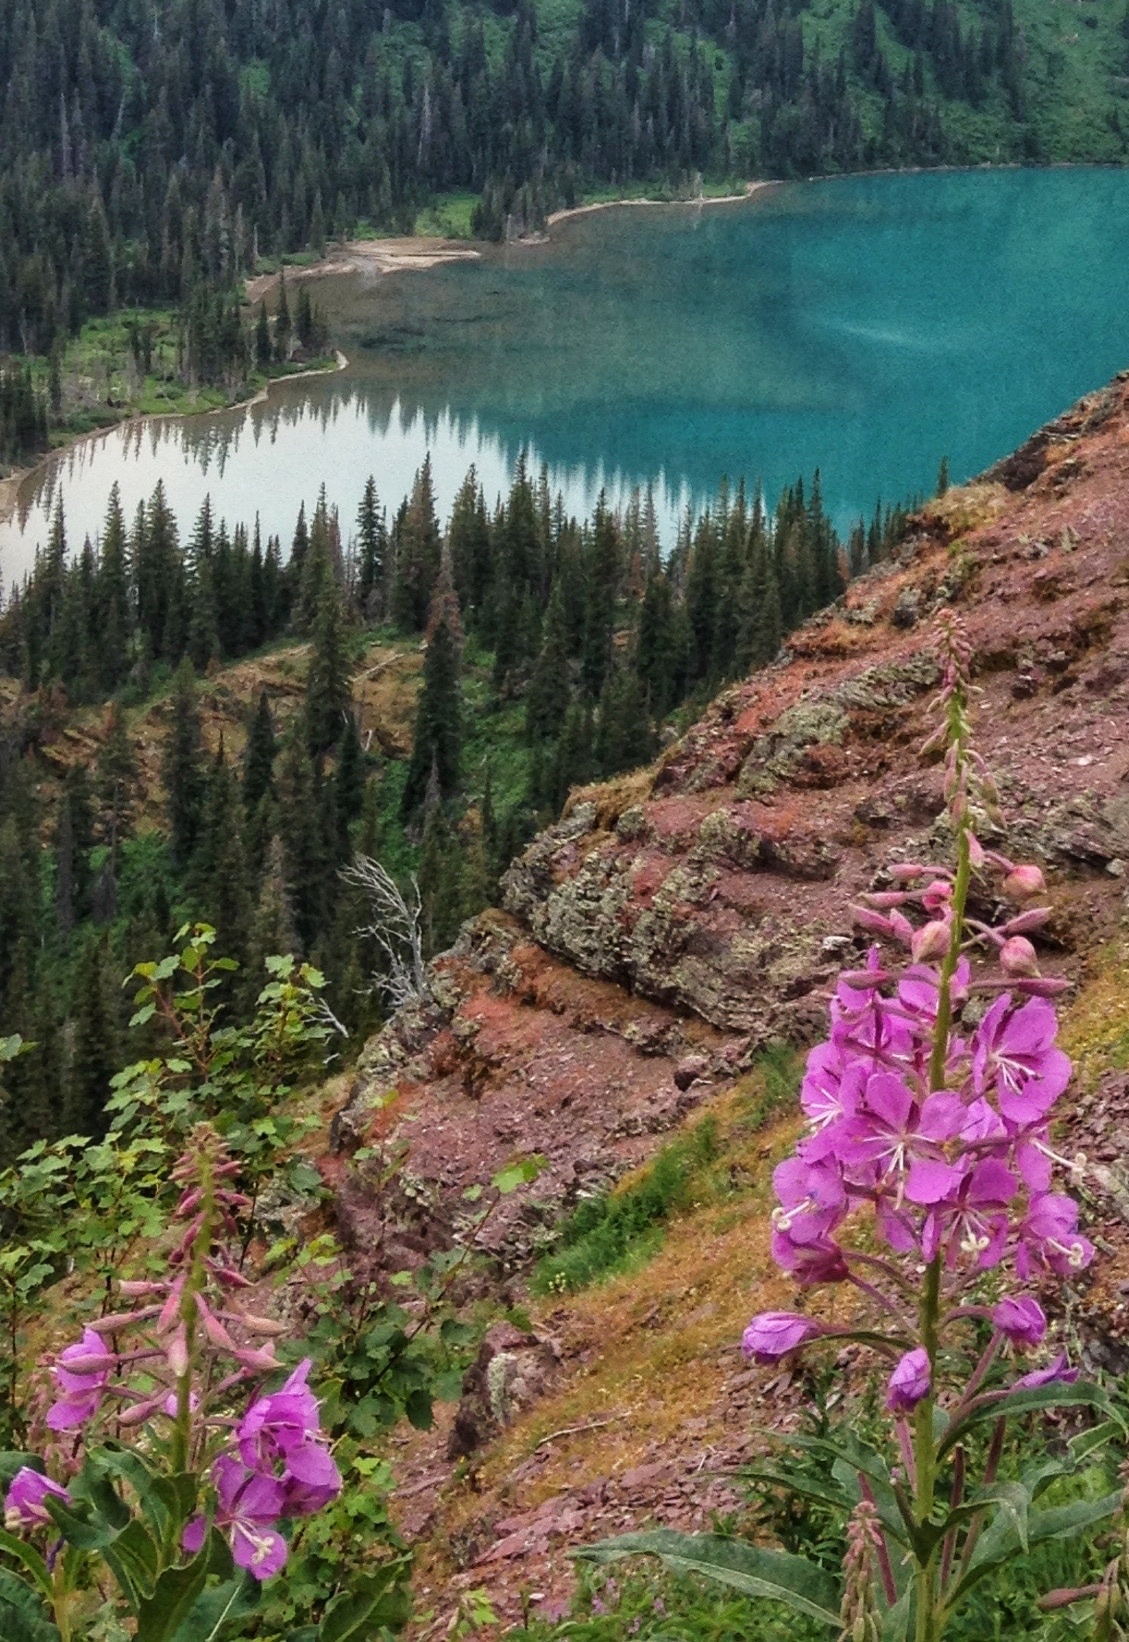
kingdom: Plantae
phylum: Tracheophyta
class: Magnoliopsida
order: Myrtales
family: Onagraceae
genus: Chamaenerion
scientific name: Chamaenerion angustifolium
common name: Fireweed
